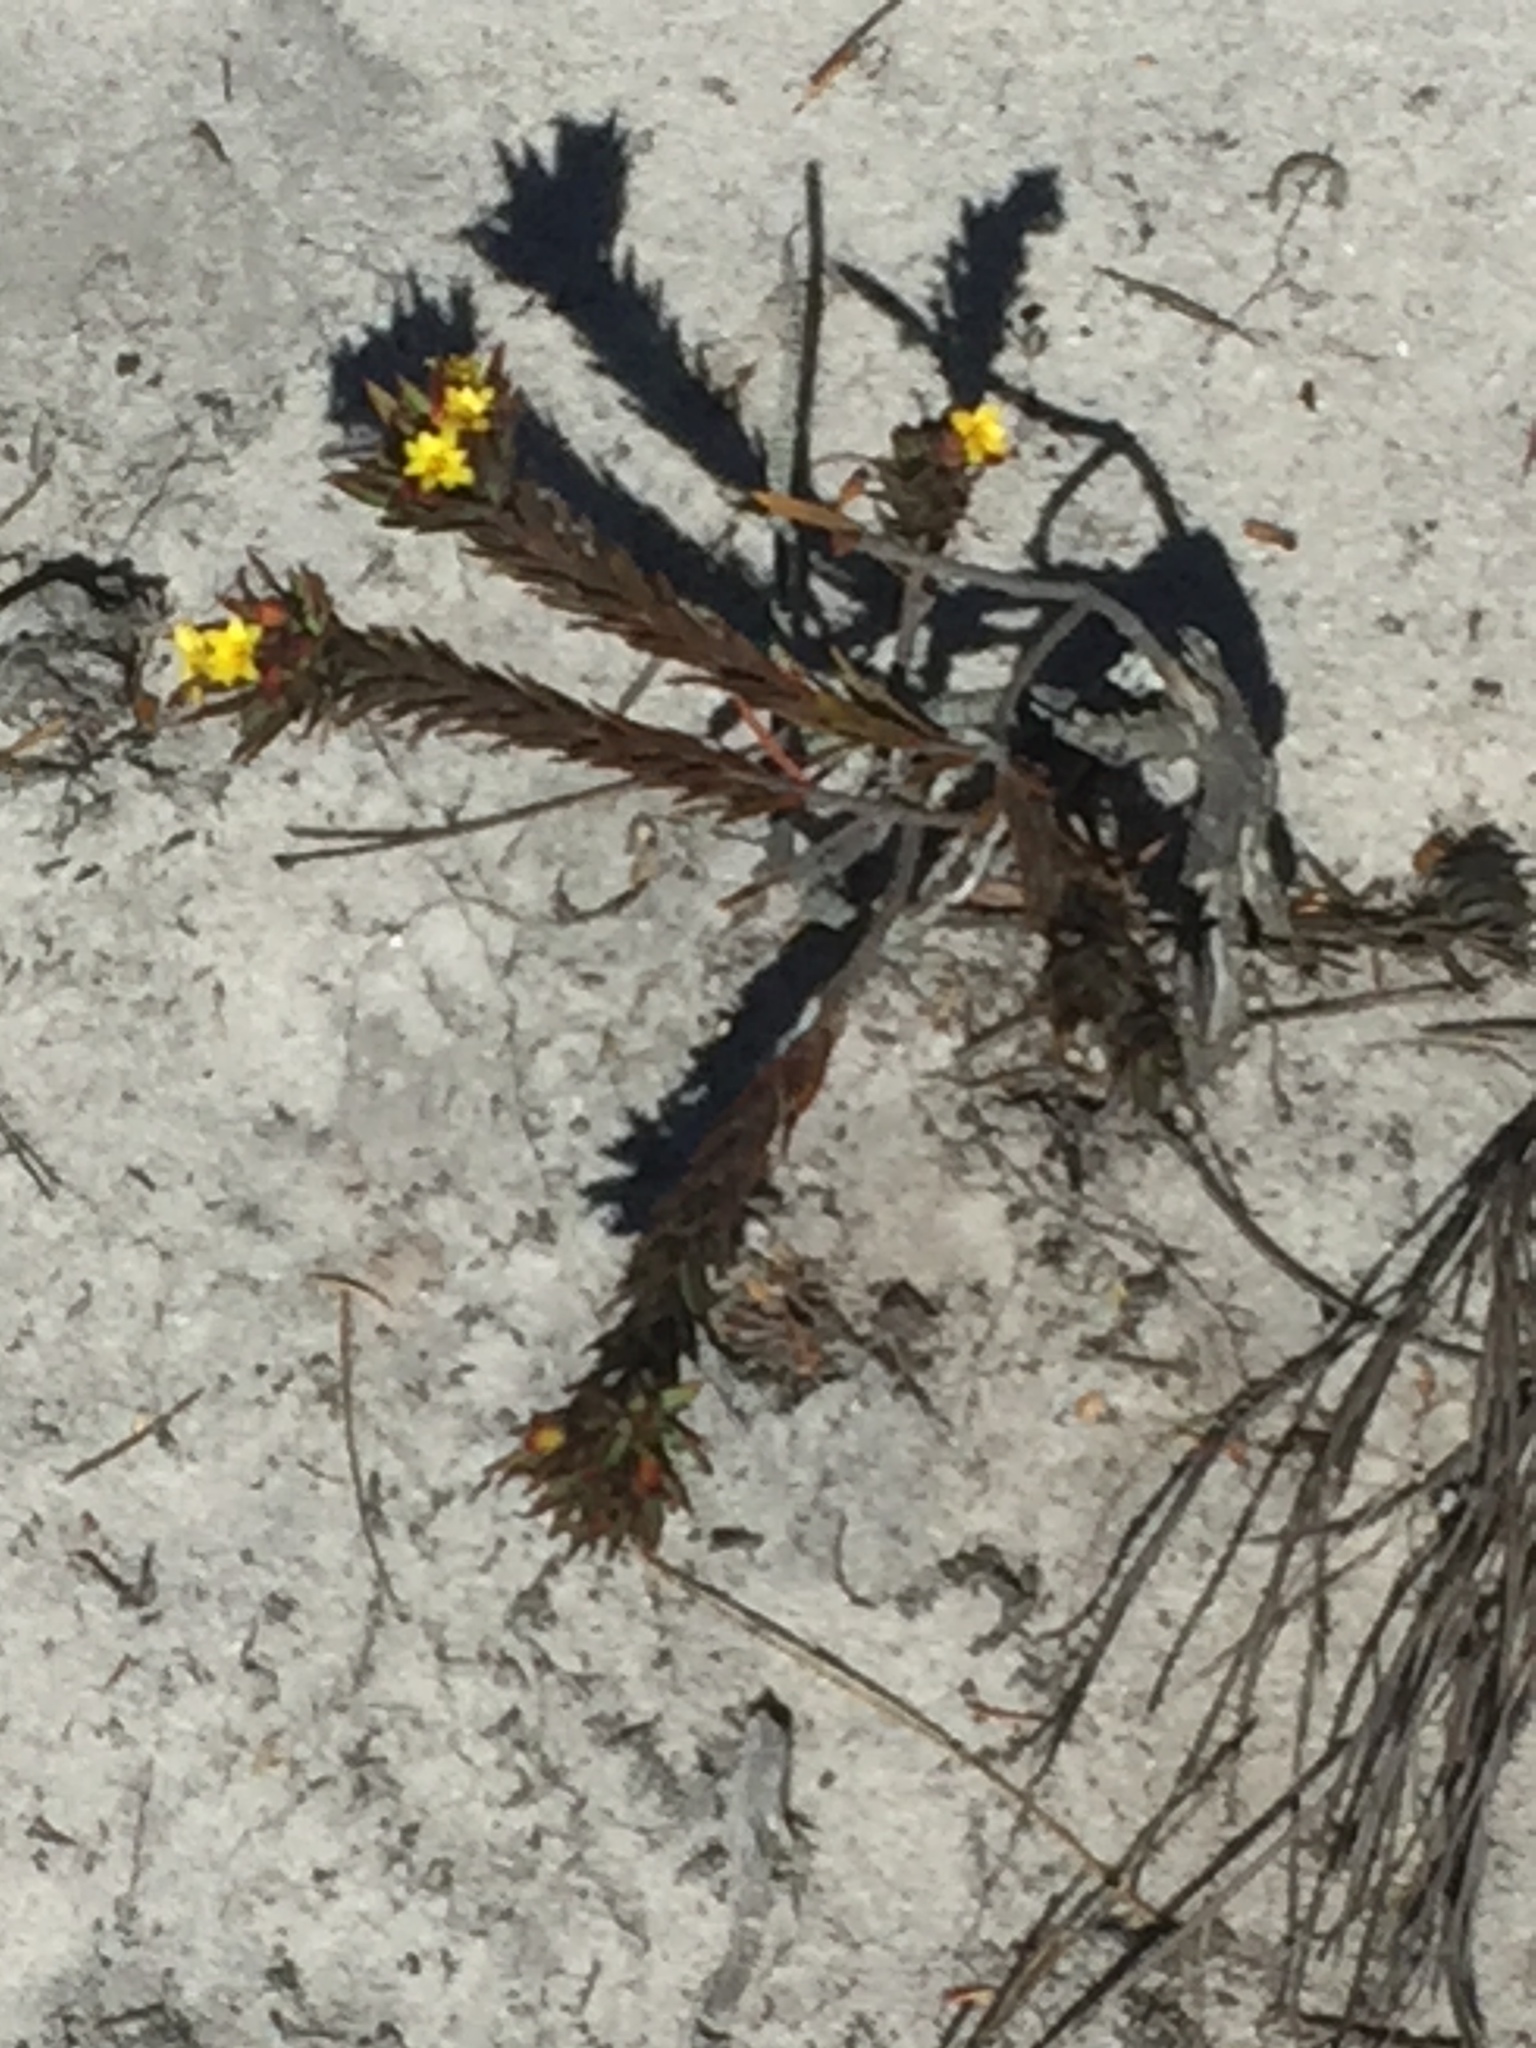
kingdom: Plantae
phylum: Tracheophyta
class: Magnoliopsida
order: Malvales
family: Thymelaeaceae
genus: Gnidia
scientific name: Gnidia juniperifolia
